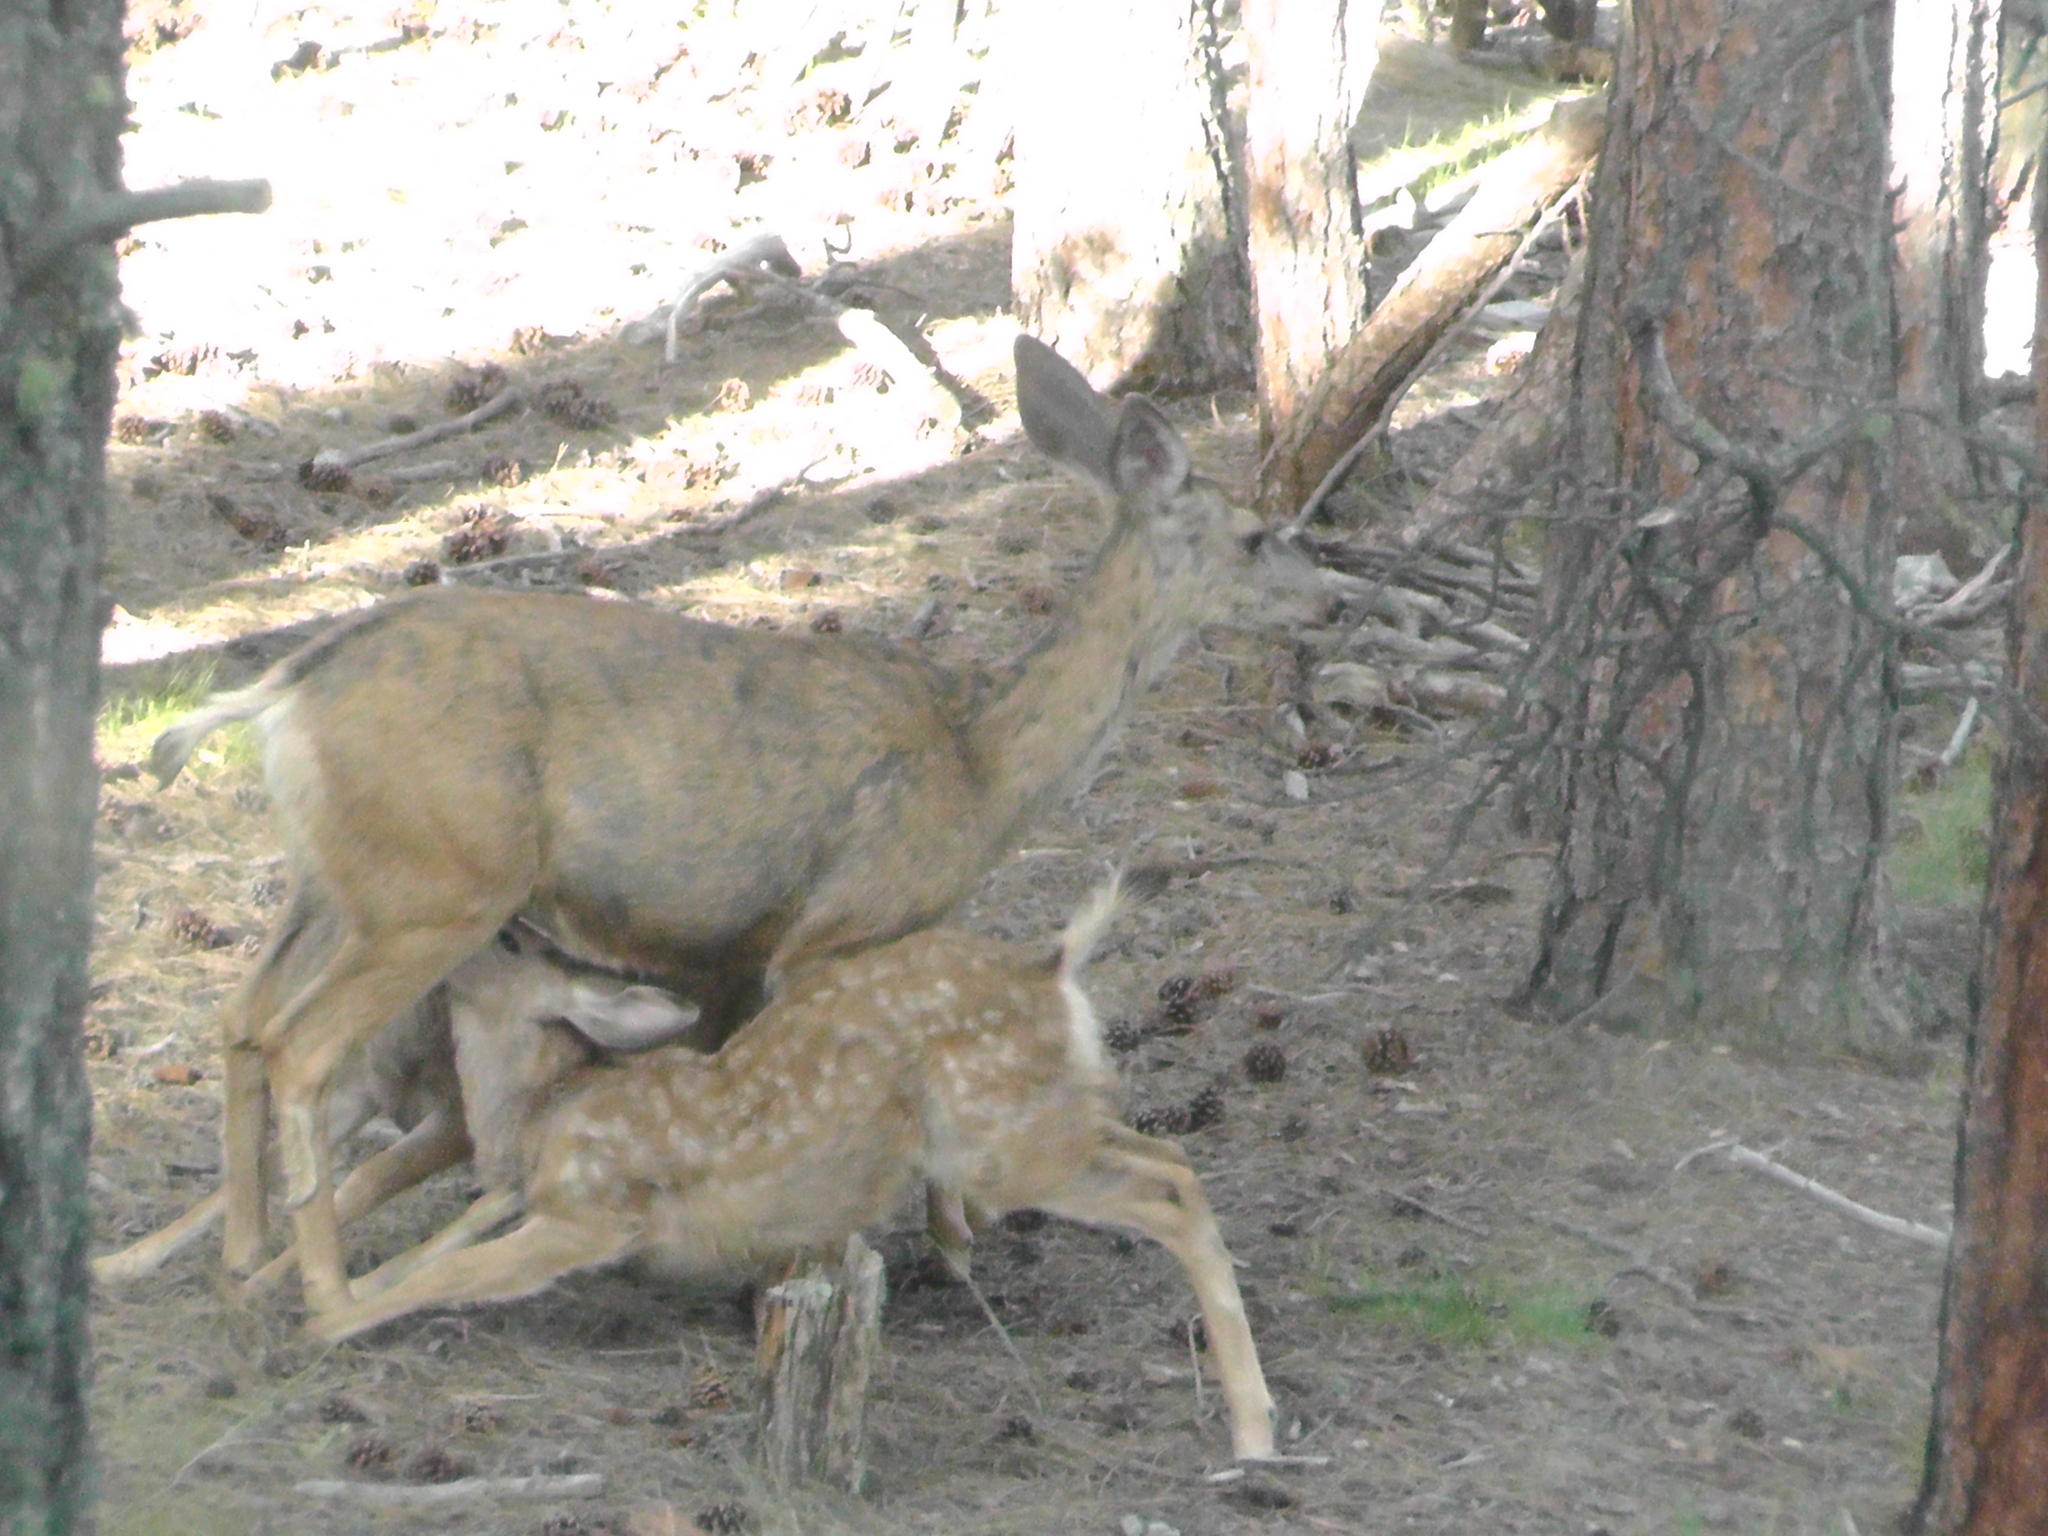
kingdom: Animalia
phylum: Chordata
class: Mammalia
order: Artiodactyla
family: Cervidae
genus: Odocoileus
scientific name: Odocoileus hemionus
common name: Mule deer
